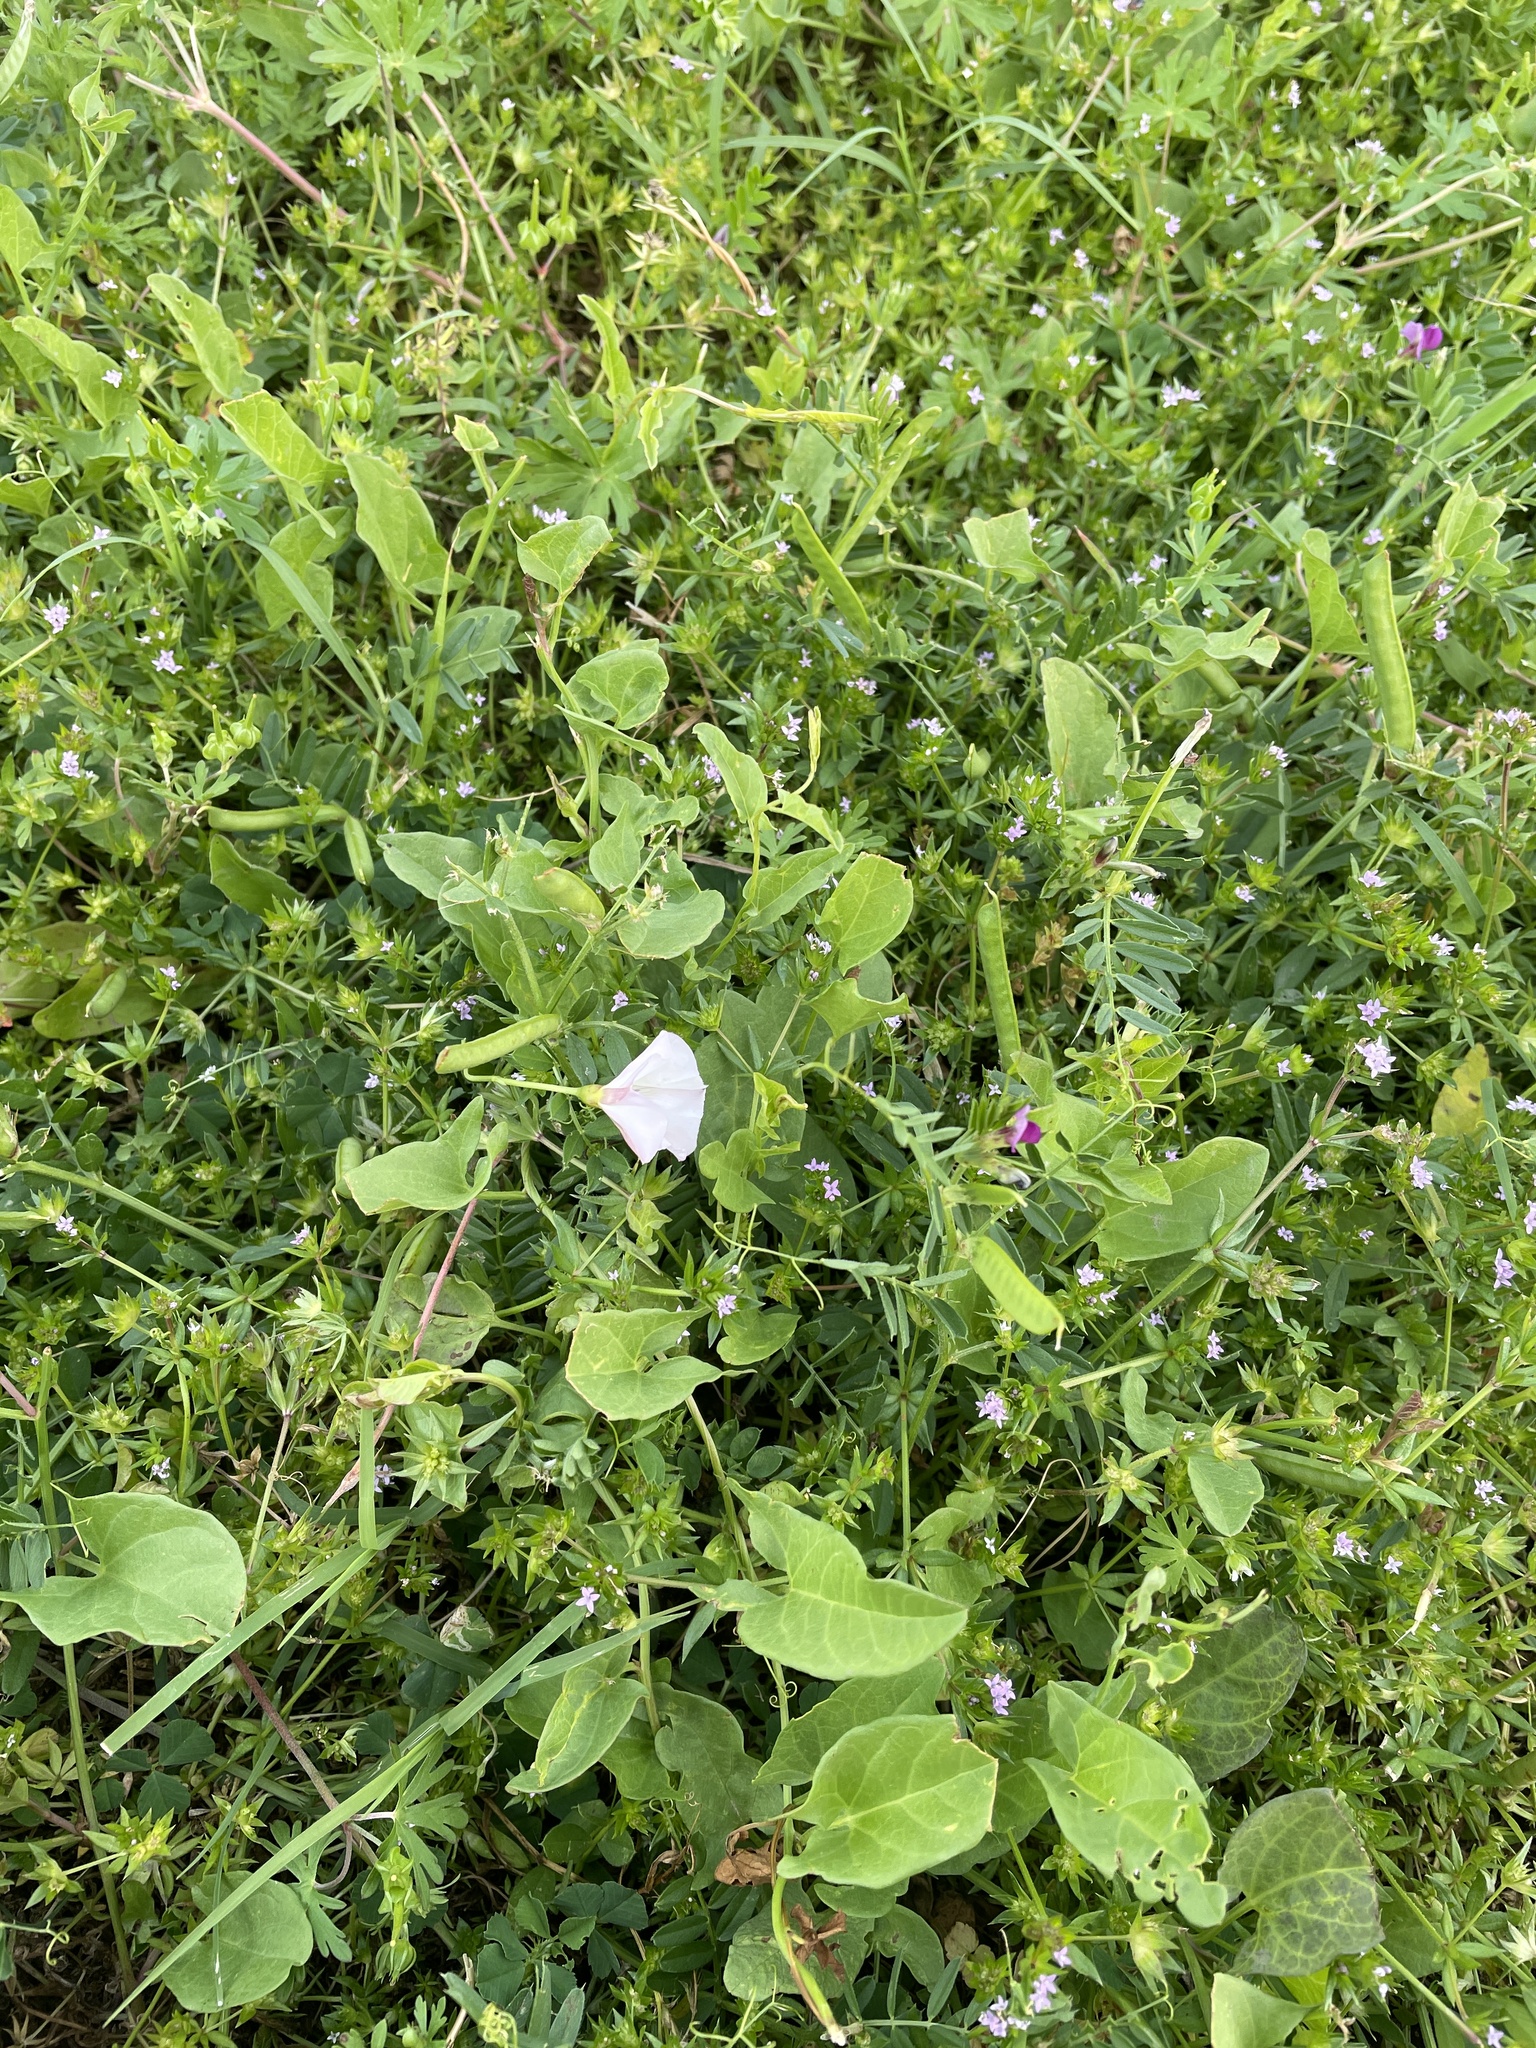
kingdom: Plantae
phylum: Tracheophyta
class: Magnoliopsida
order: Solanales
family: Convolvulaceae
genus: Convolvulus
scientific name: Convolvulus arvensis
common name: Field bindweed
